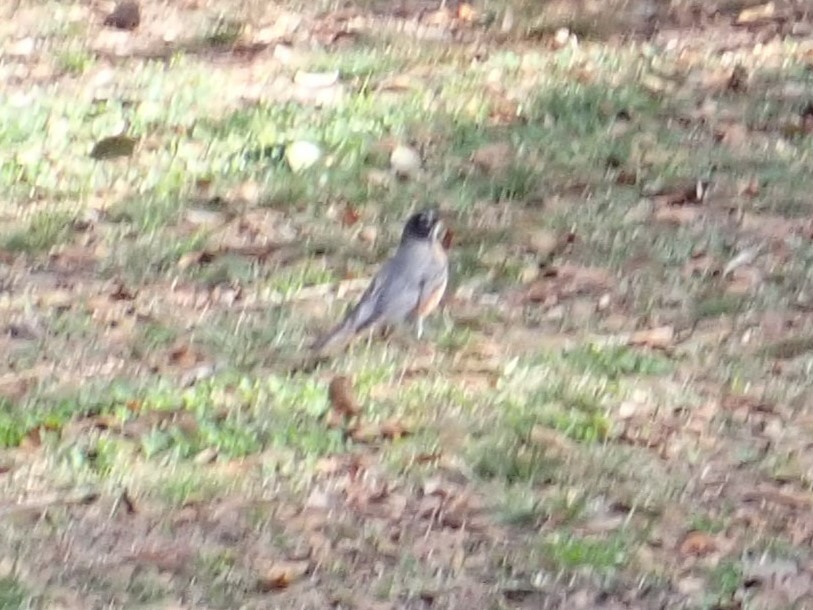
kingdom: Animalia
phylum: Chordata
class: Aves
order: Passeriformes
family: Turdidae
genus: Turdus
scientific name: Turdus migratorius
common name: American robin
